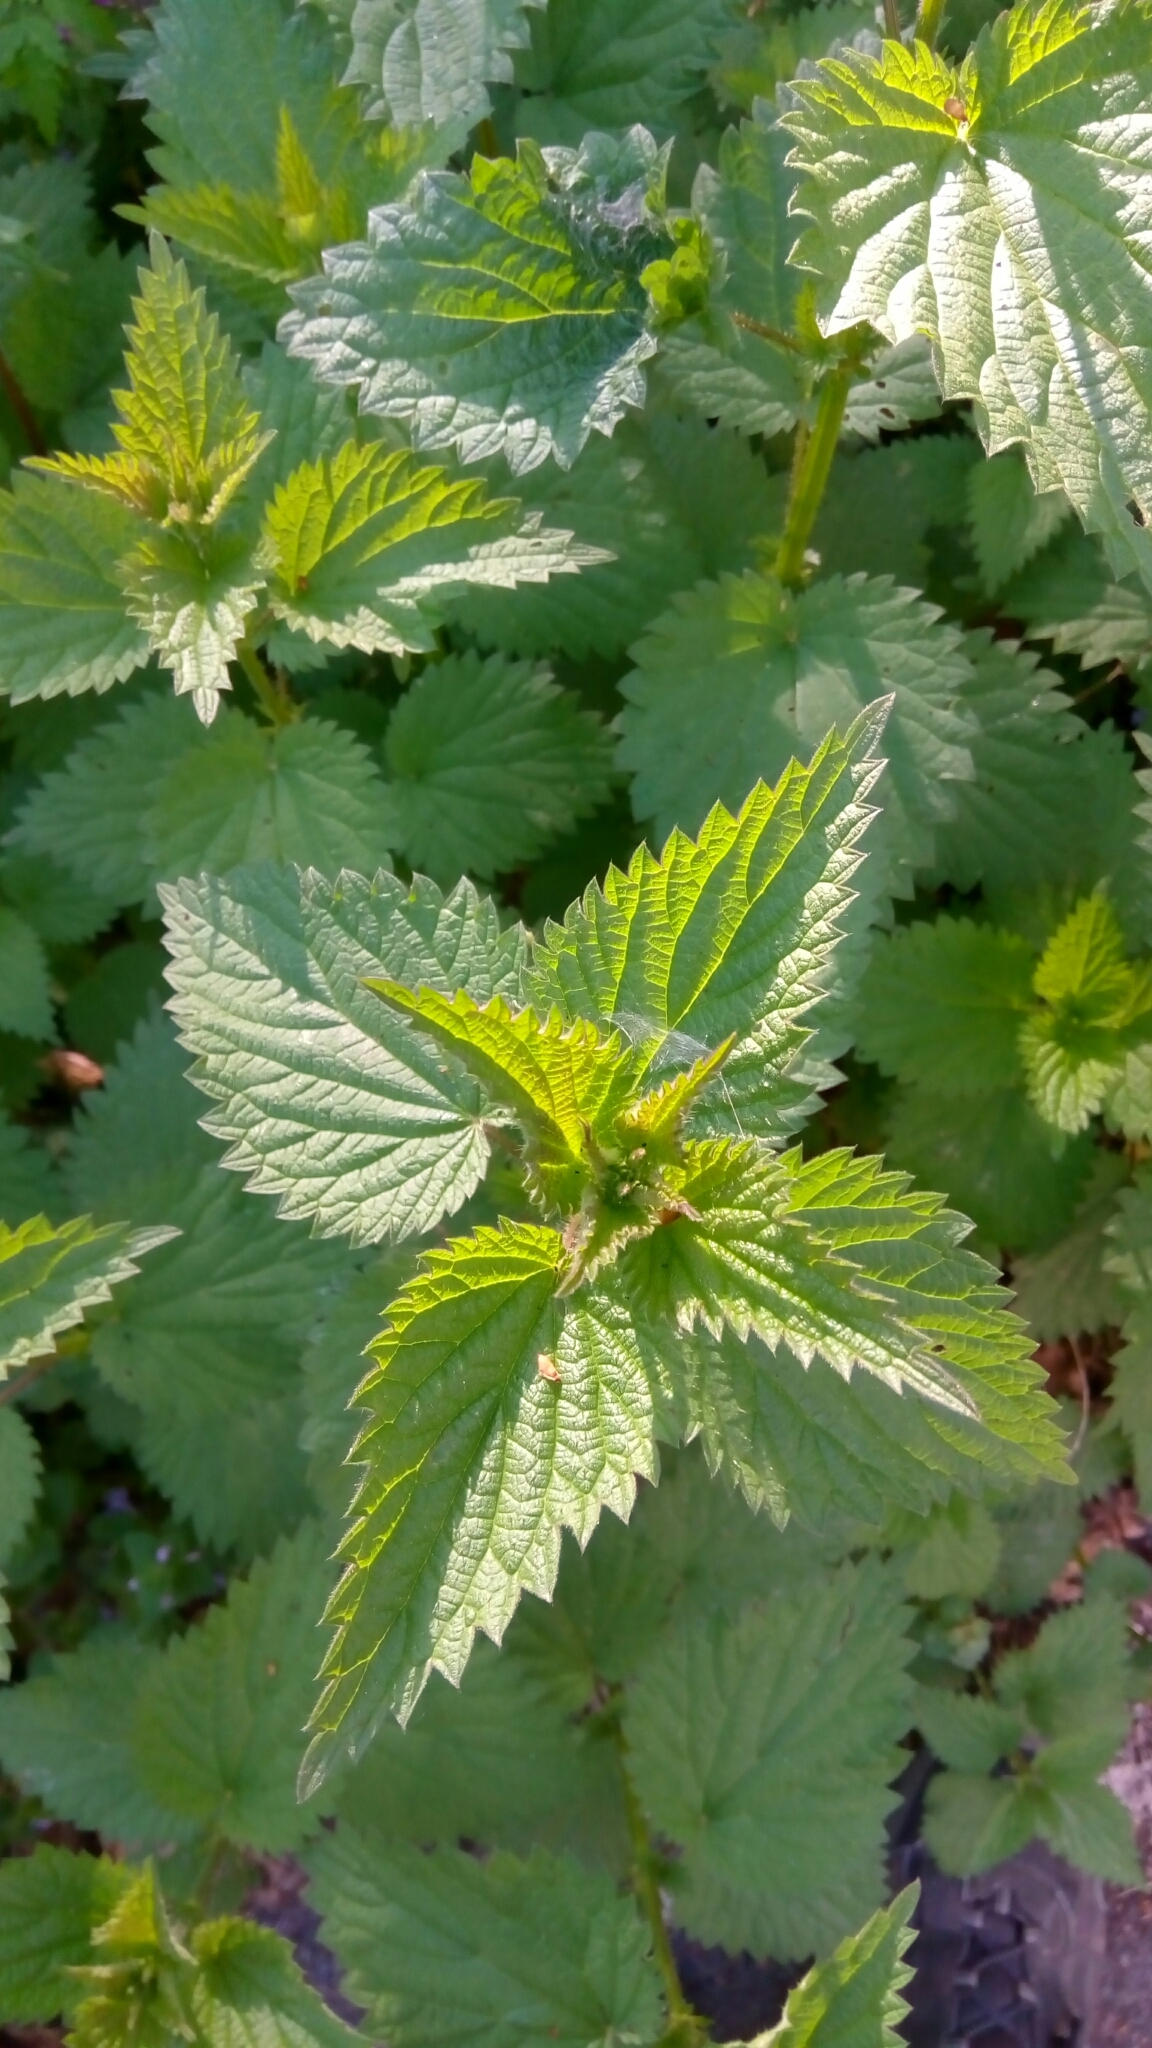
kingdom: Plantae
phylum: Tracheophyta
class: Magnoliopsida
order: Rosales
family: Urticaceae
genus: Urtica
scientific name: Urtica dioica
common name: Common nettle
